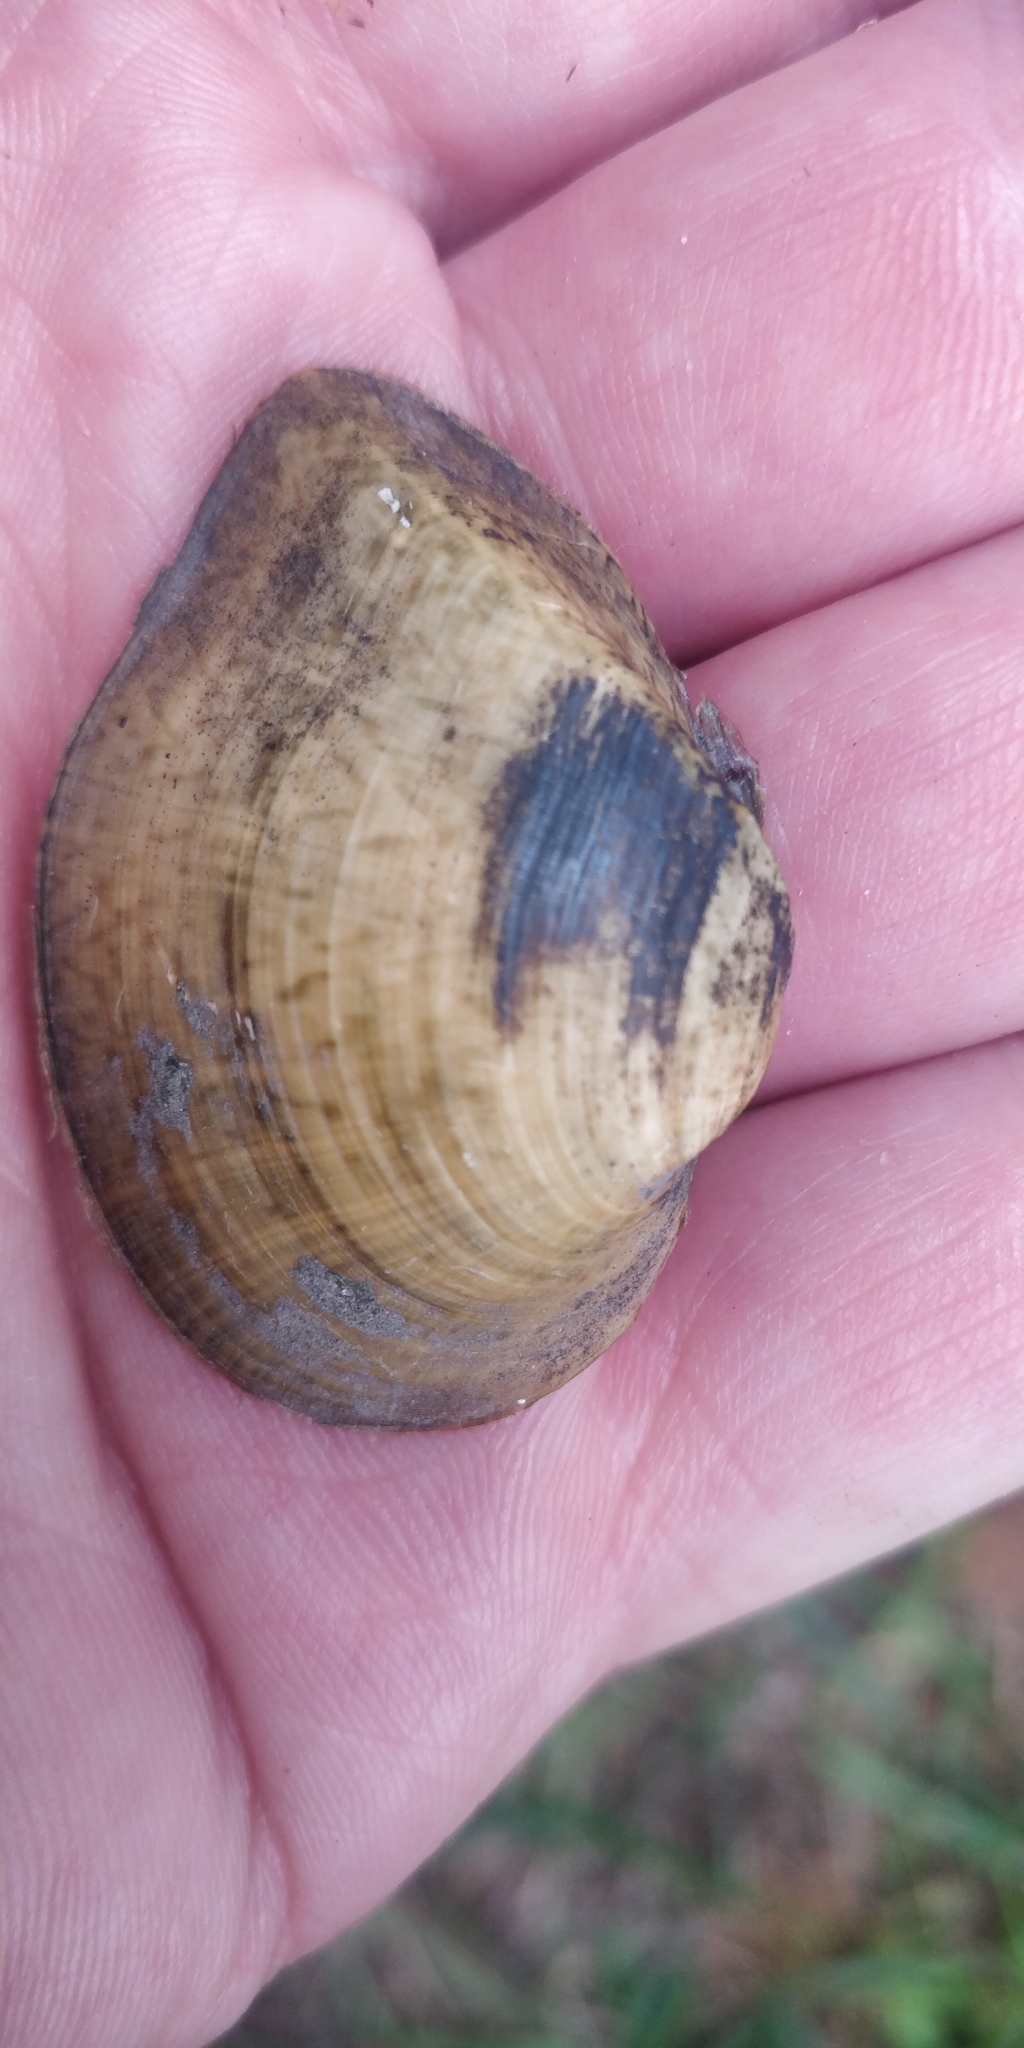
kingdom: Animalia
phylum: Mollusca
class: Bivalvia
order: Unionida
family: Unionidae
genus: Truncilla
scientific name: Truncilla truncata
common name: Deertoe
